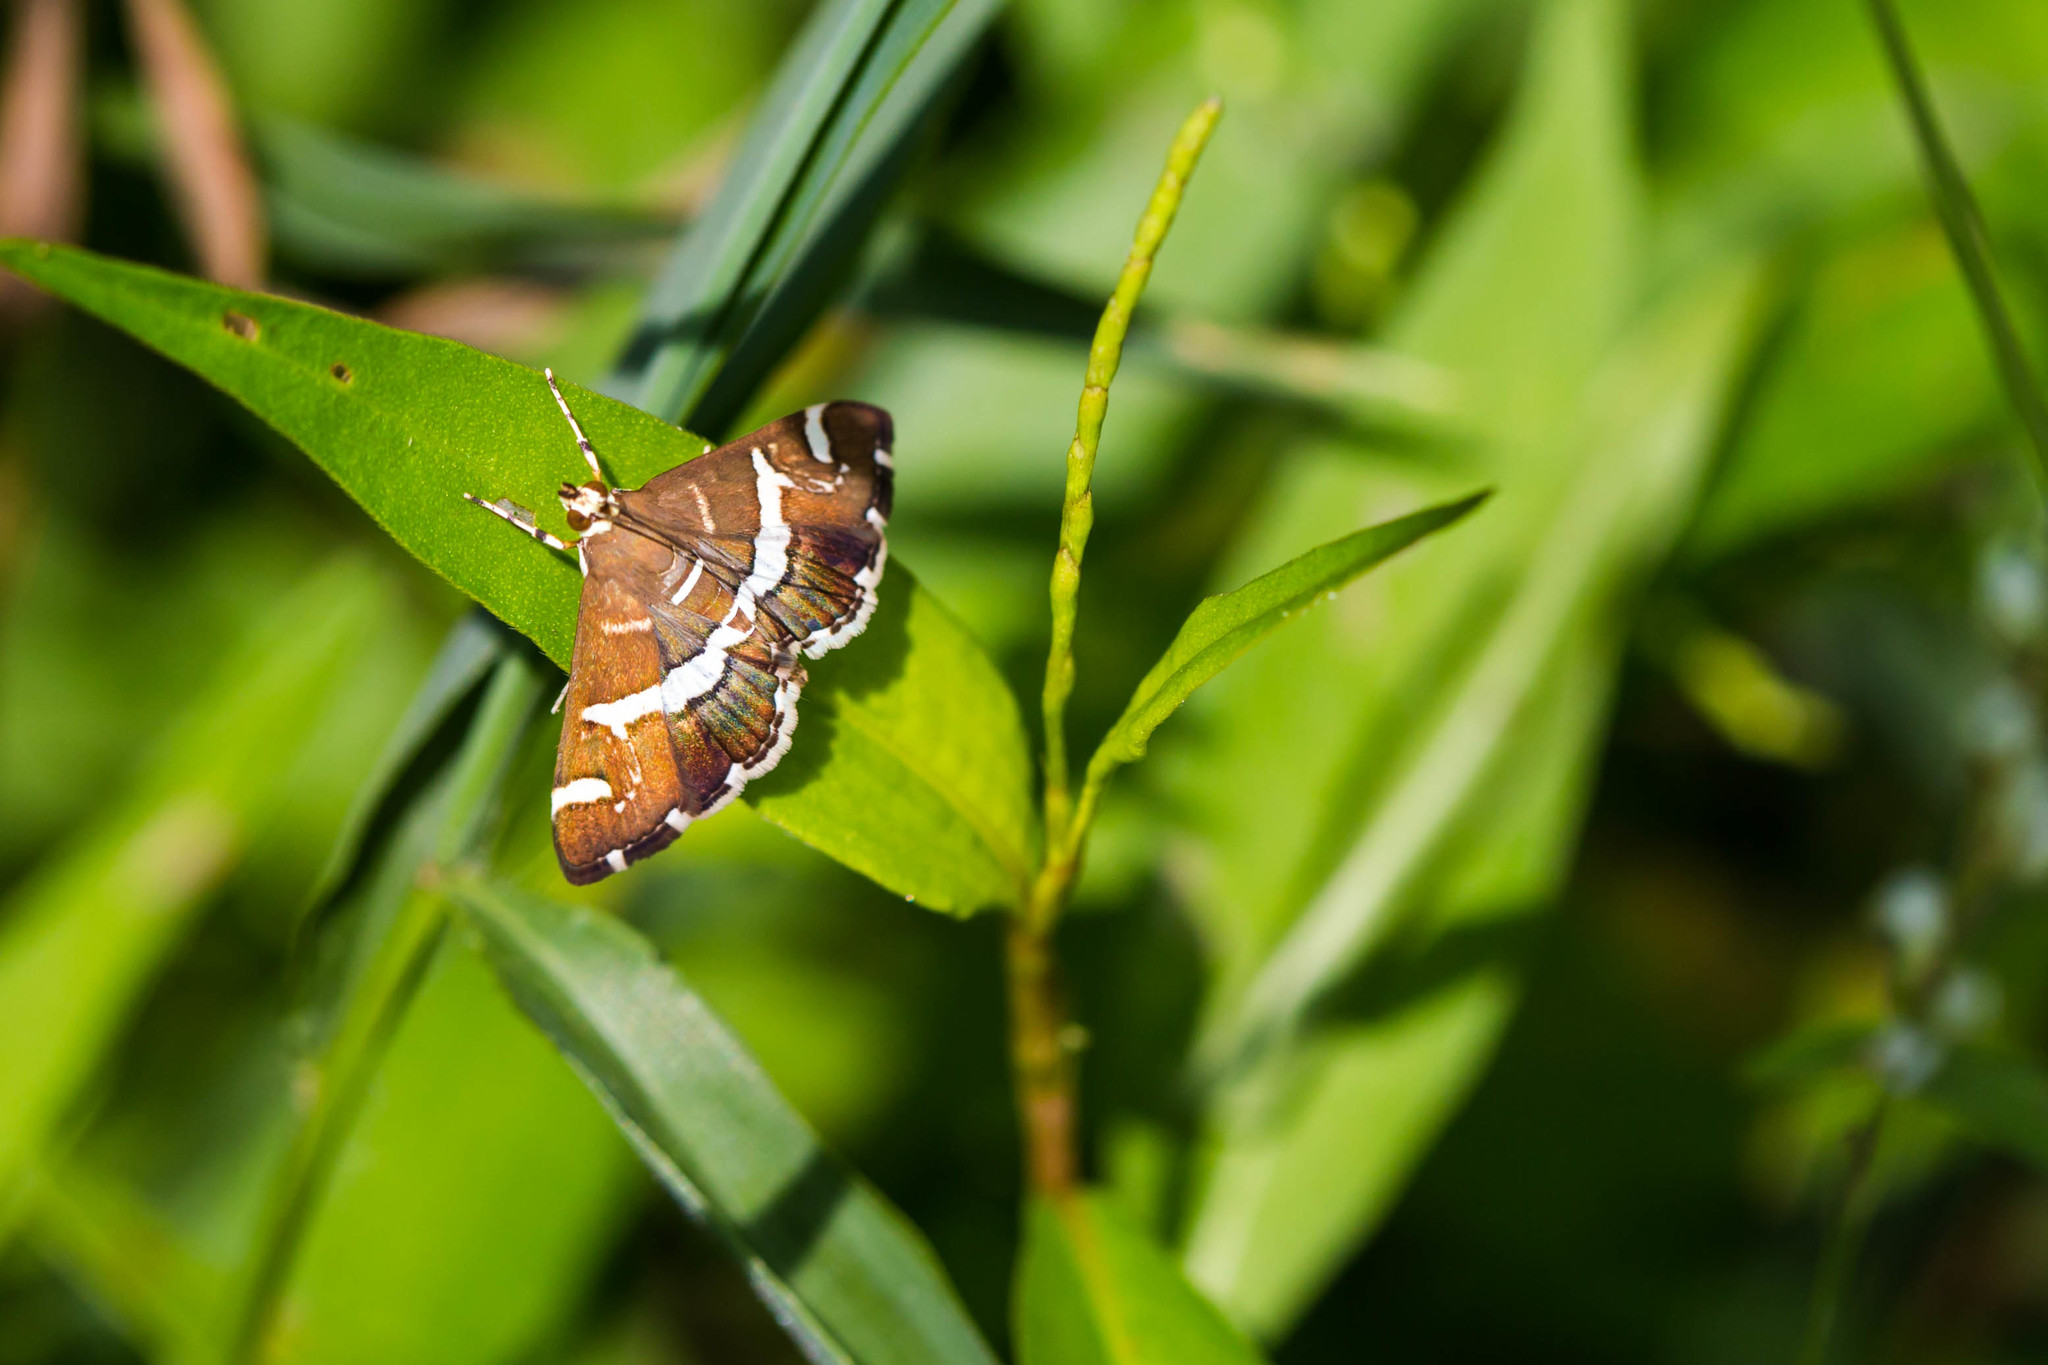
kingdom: Animalia
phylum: Arthropoda
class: Insecta
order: Lepidoptera
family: Crambidae
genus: Spoladea
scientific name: Spoladea recurvalis
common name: Beet webworm moth
